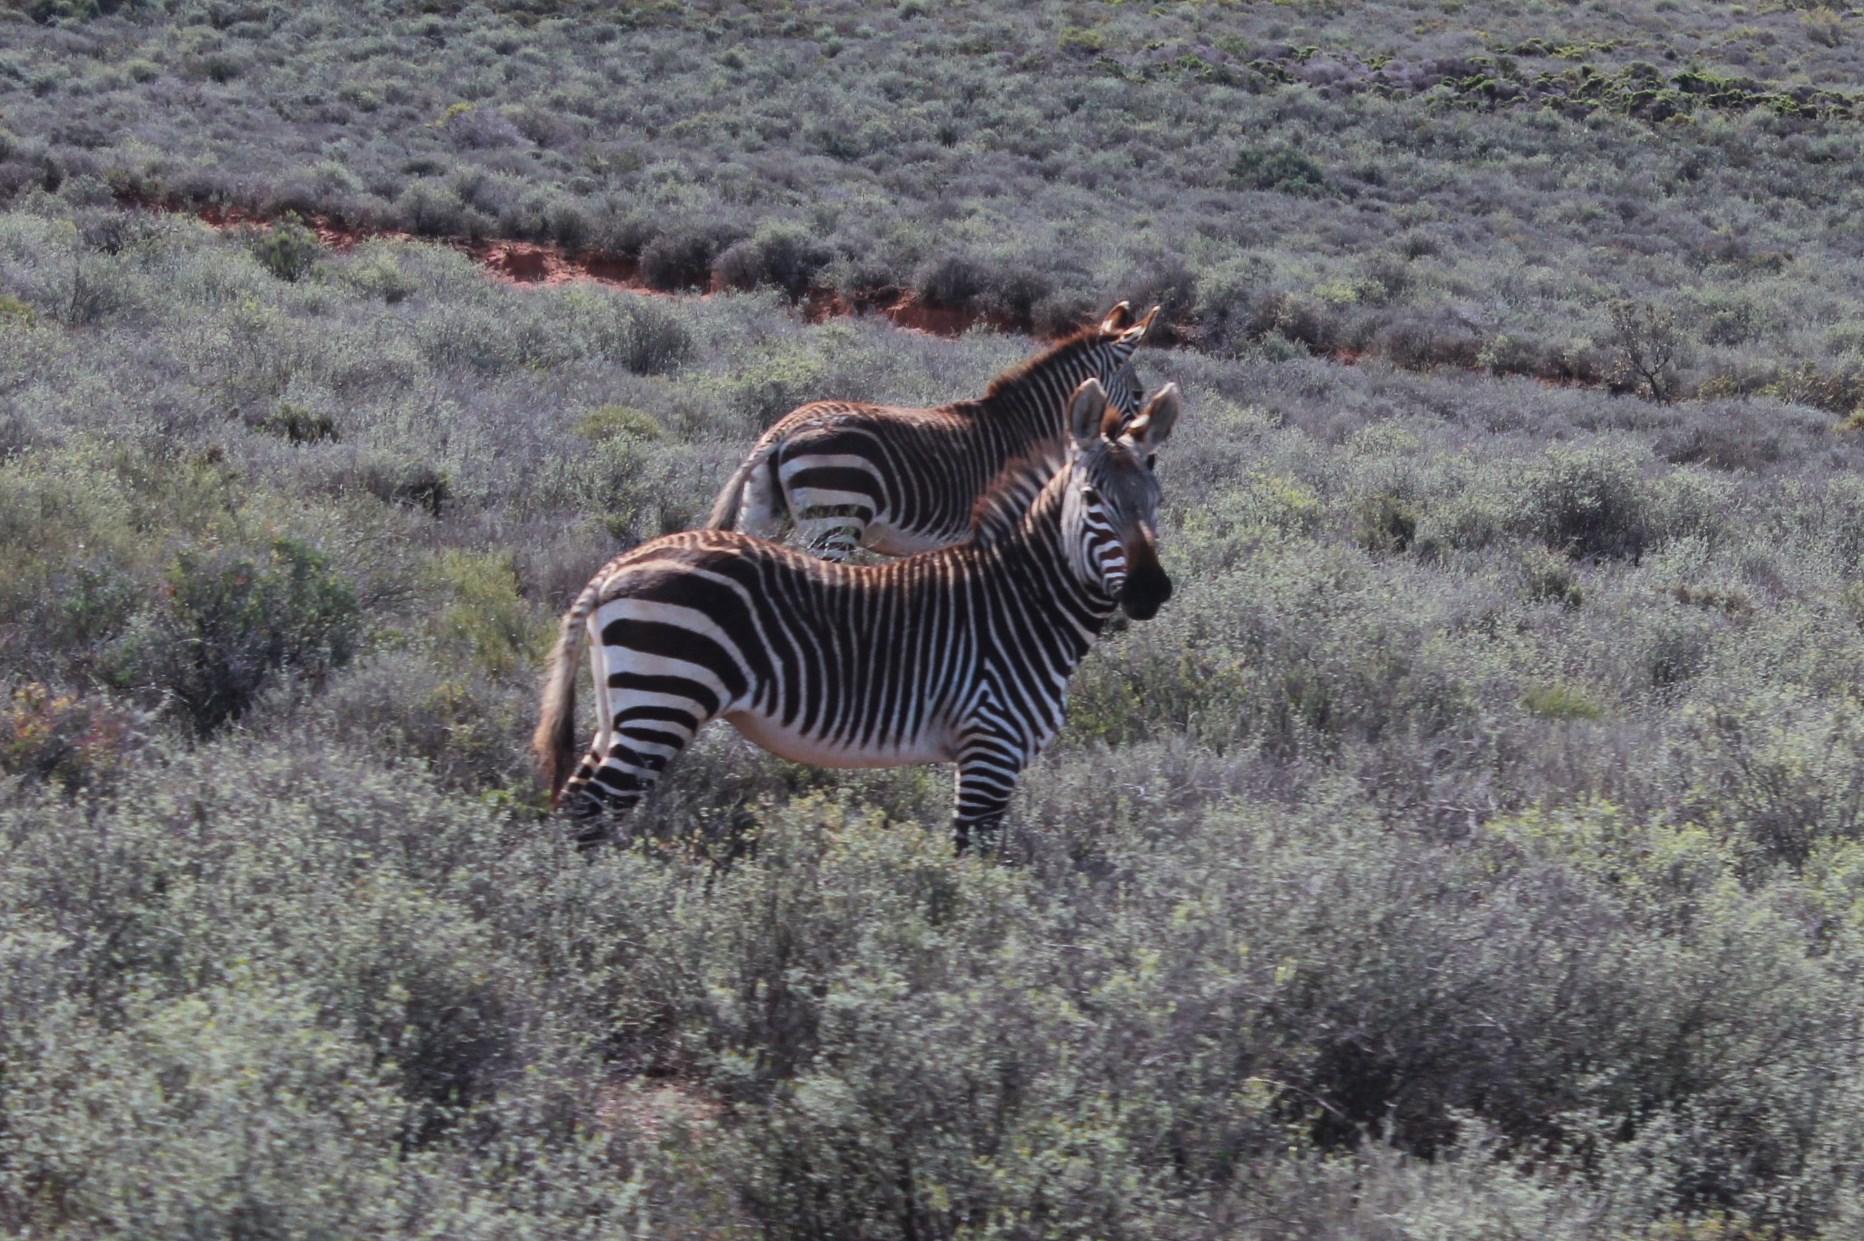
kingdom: Animalia
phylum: Chordata
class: Mammalia
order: Perissodactyla
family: Equidae
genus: Equus
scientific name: Equus zebra
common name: Mountain zebra
